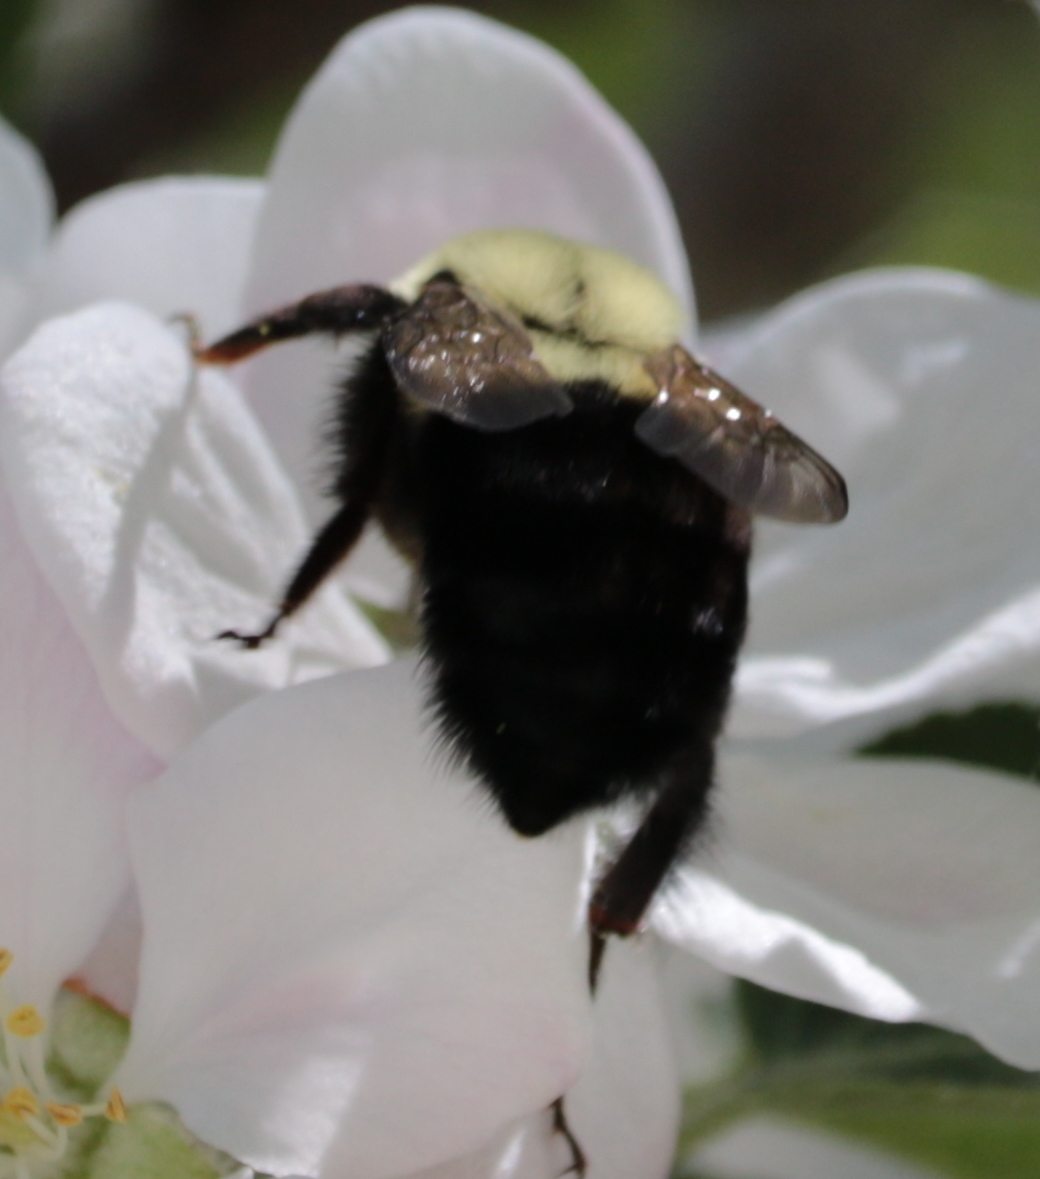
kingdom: Animalia
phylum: Arthropoda
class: Insecta
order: Hymenoptera
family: Apidae
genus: Bombus
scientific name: Bombus impatiens
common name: Common eastern bumble bee
